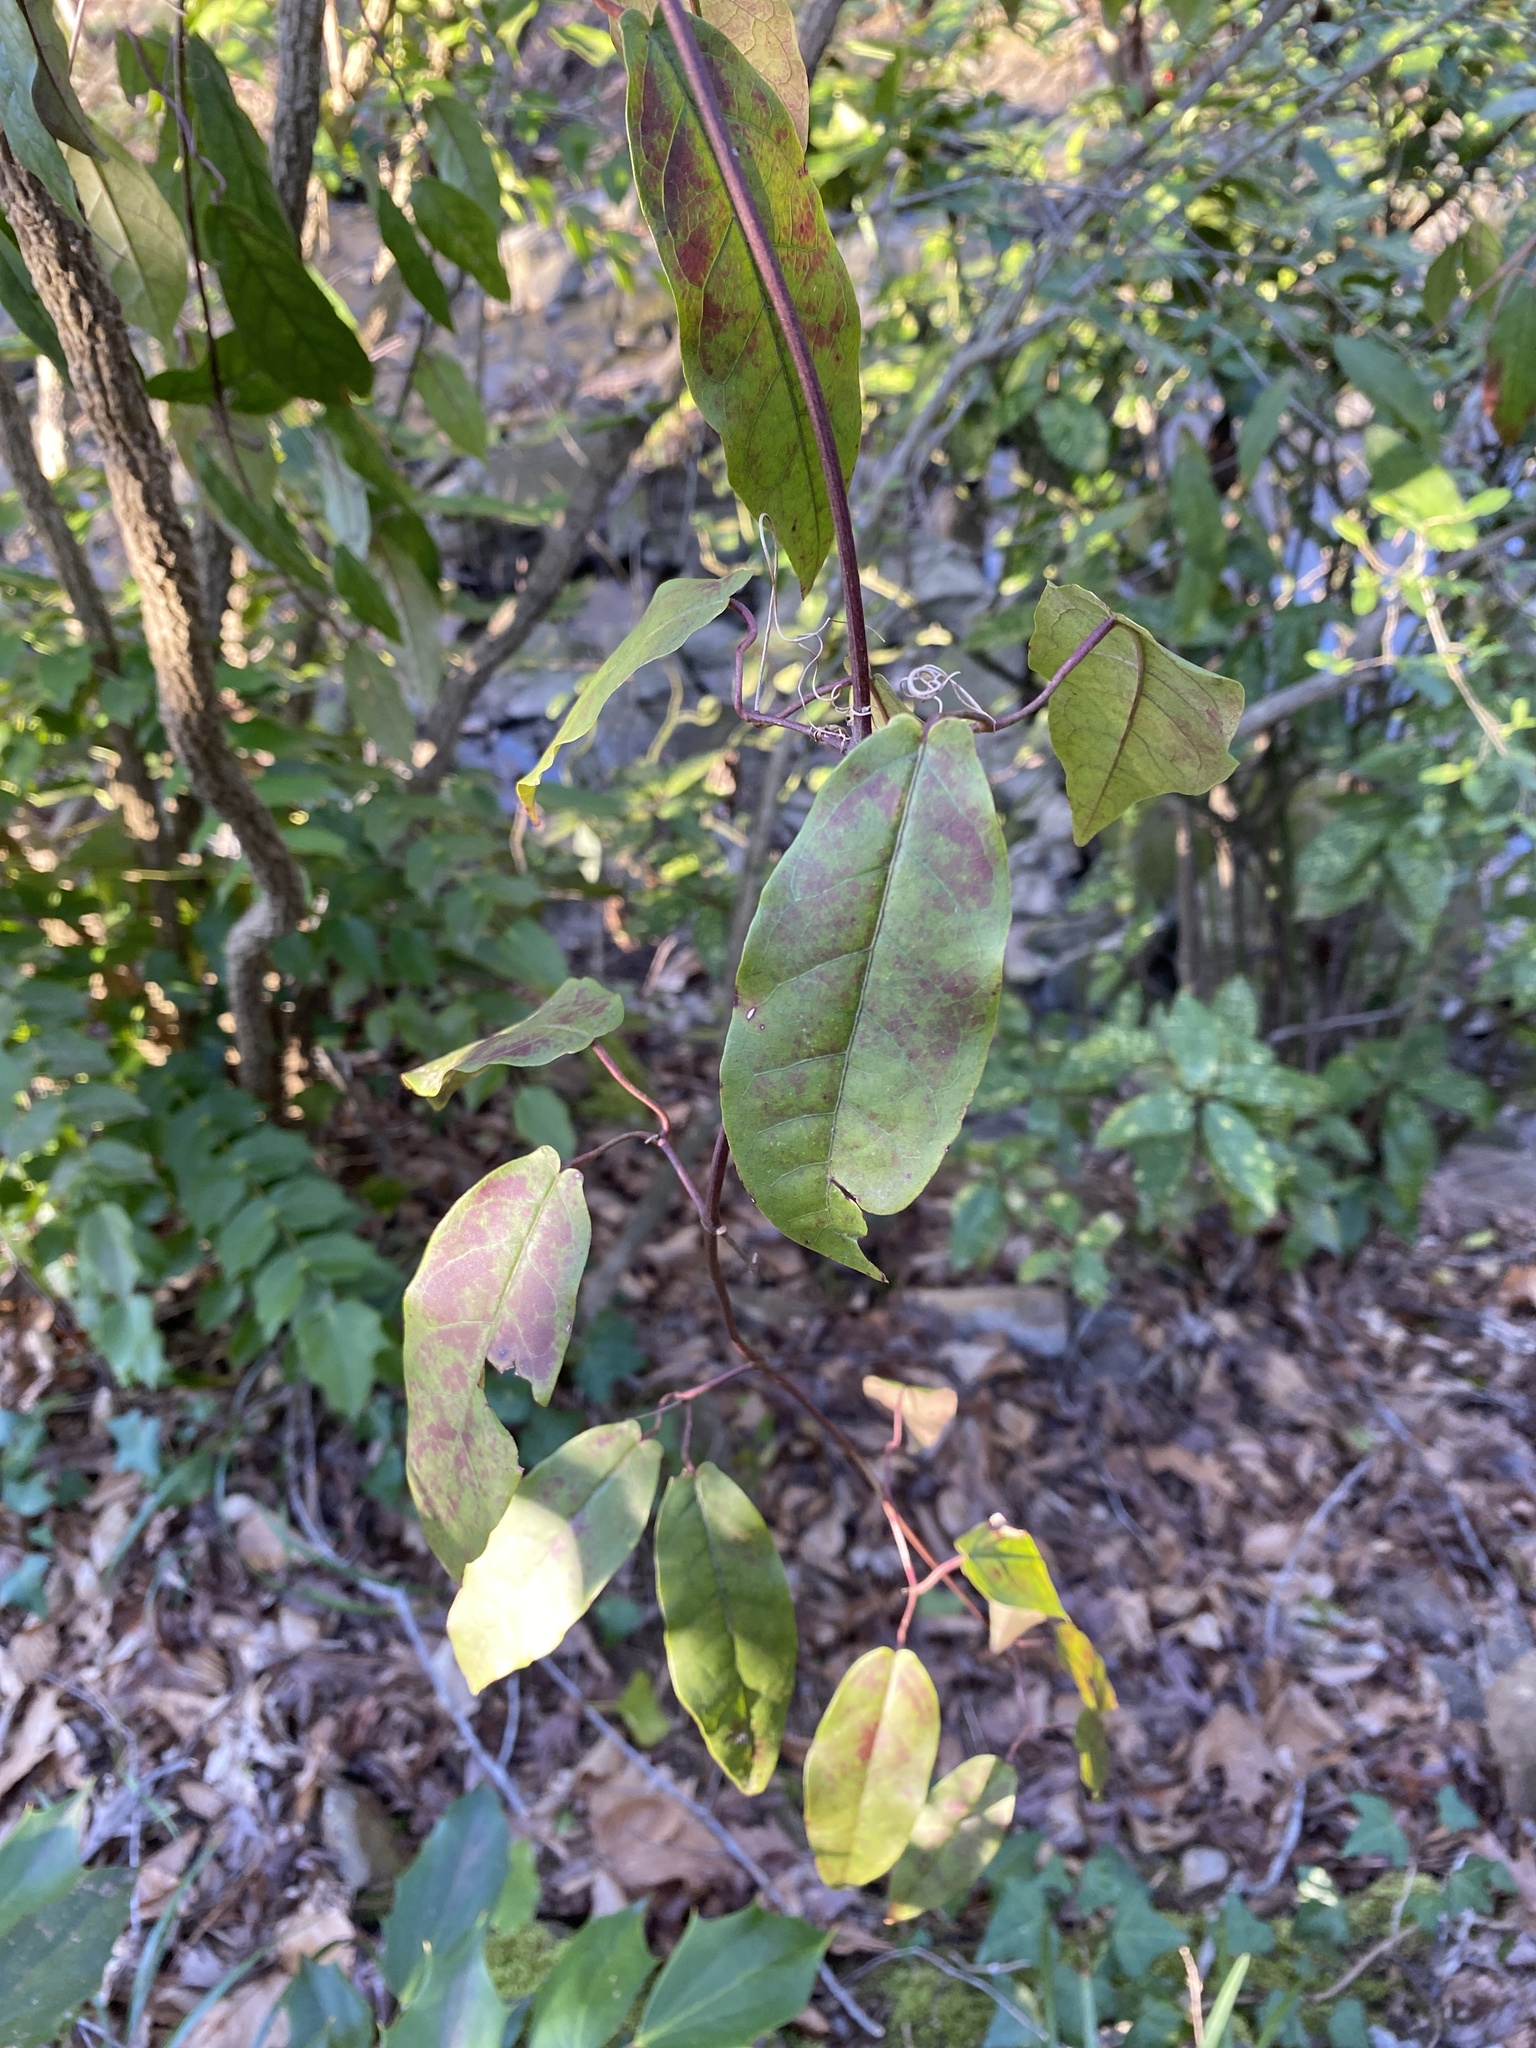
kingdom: Plantae
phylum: Tracheophyta
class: Magnoliopsida
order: Lamiales
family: Bignoniaceae
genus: Bignonia
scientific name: Bignonia capreolata
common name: Crossvine
